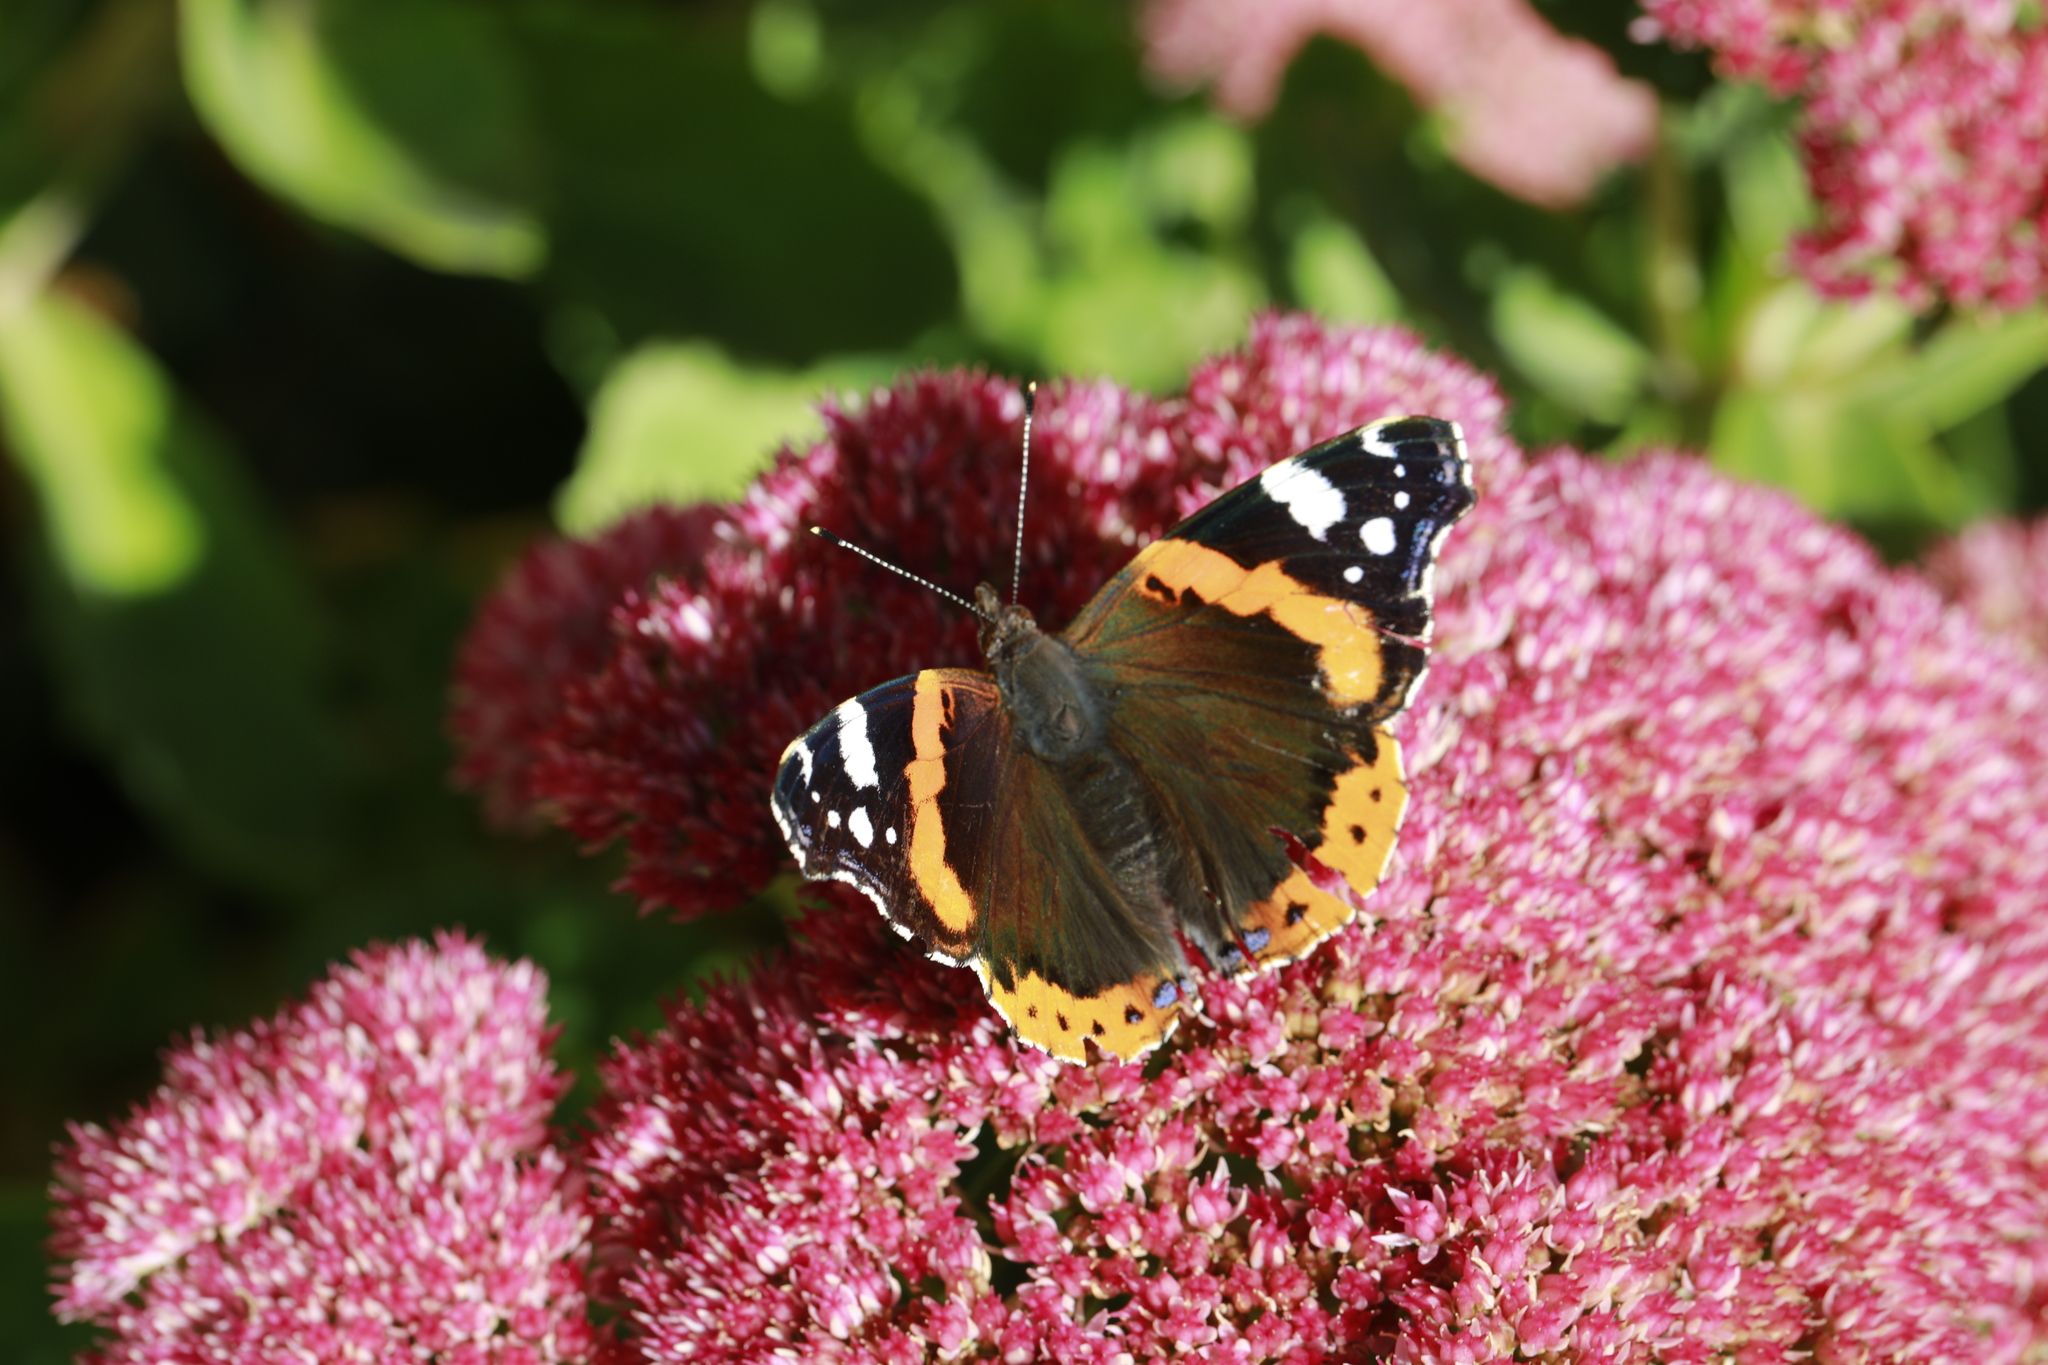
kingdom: Animalia
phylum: Arthropoda
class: Insecta
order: Lepidoptera
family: Nymphalidae
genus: Vanessa
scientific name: Vanessa atalanta
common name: Red admiral
